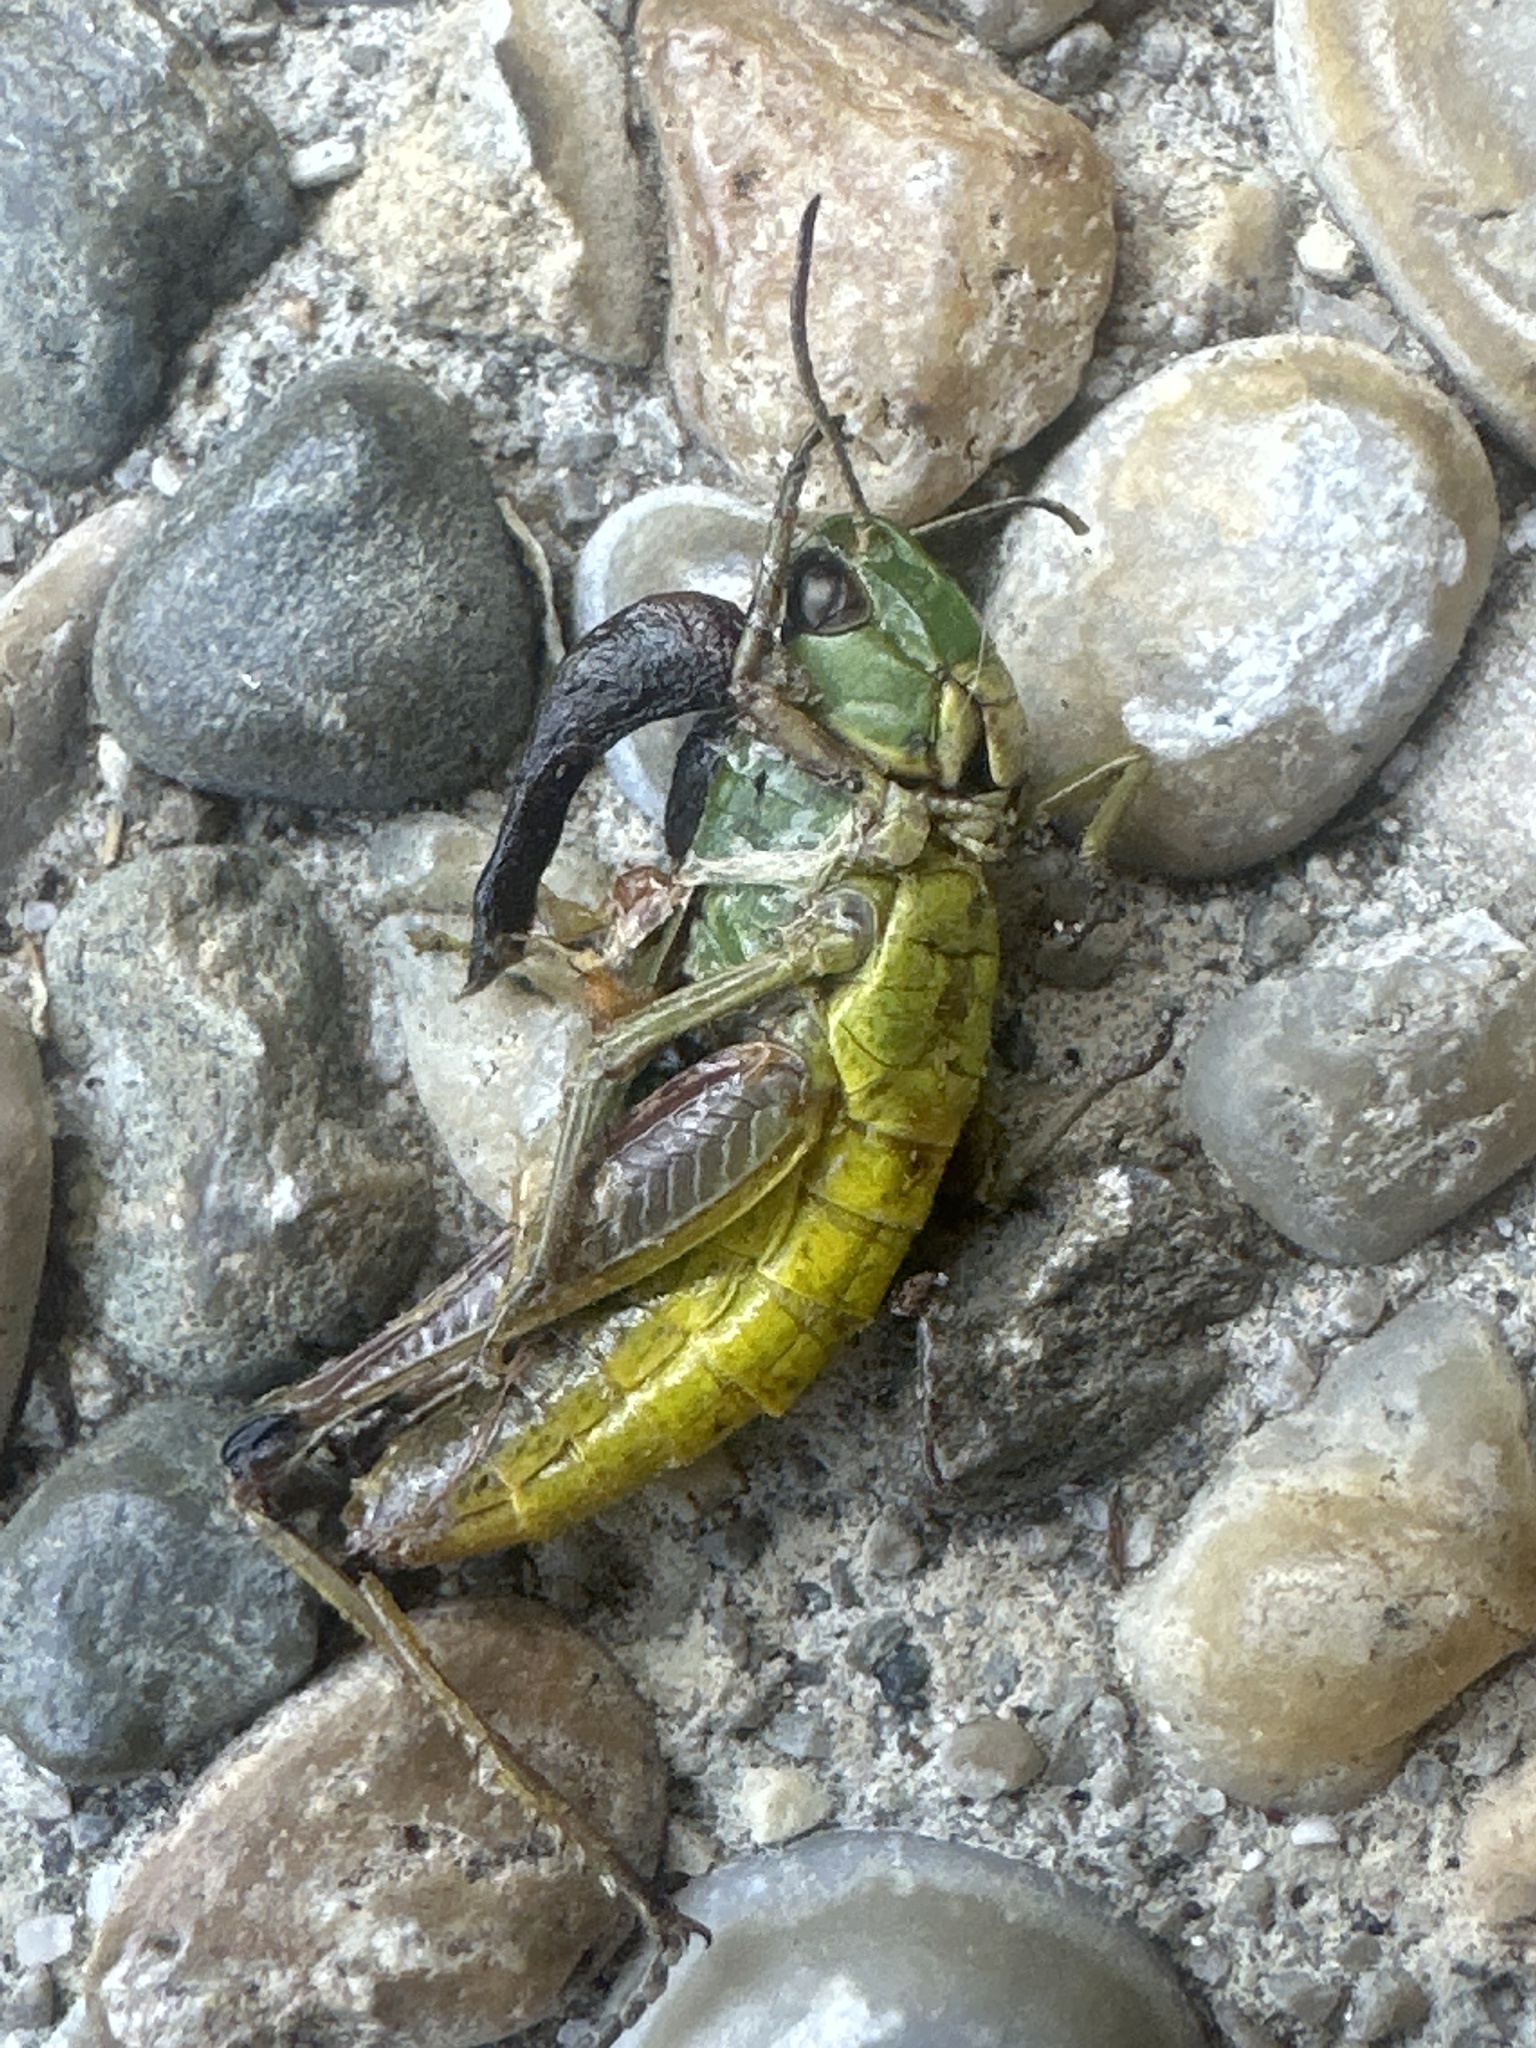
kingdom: Animalia
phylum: Arthropoda
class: Insecta
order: Orthoptera
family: Acrididae
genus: Pseudochorthippus
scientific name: Pseudochorthippus parallelus
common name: Meadow grasshopper
